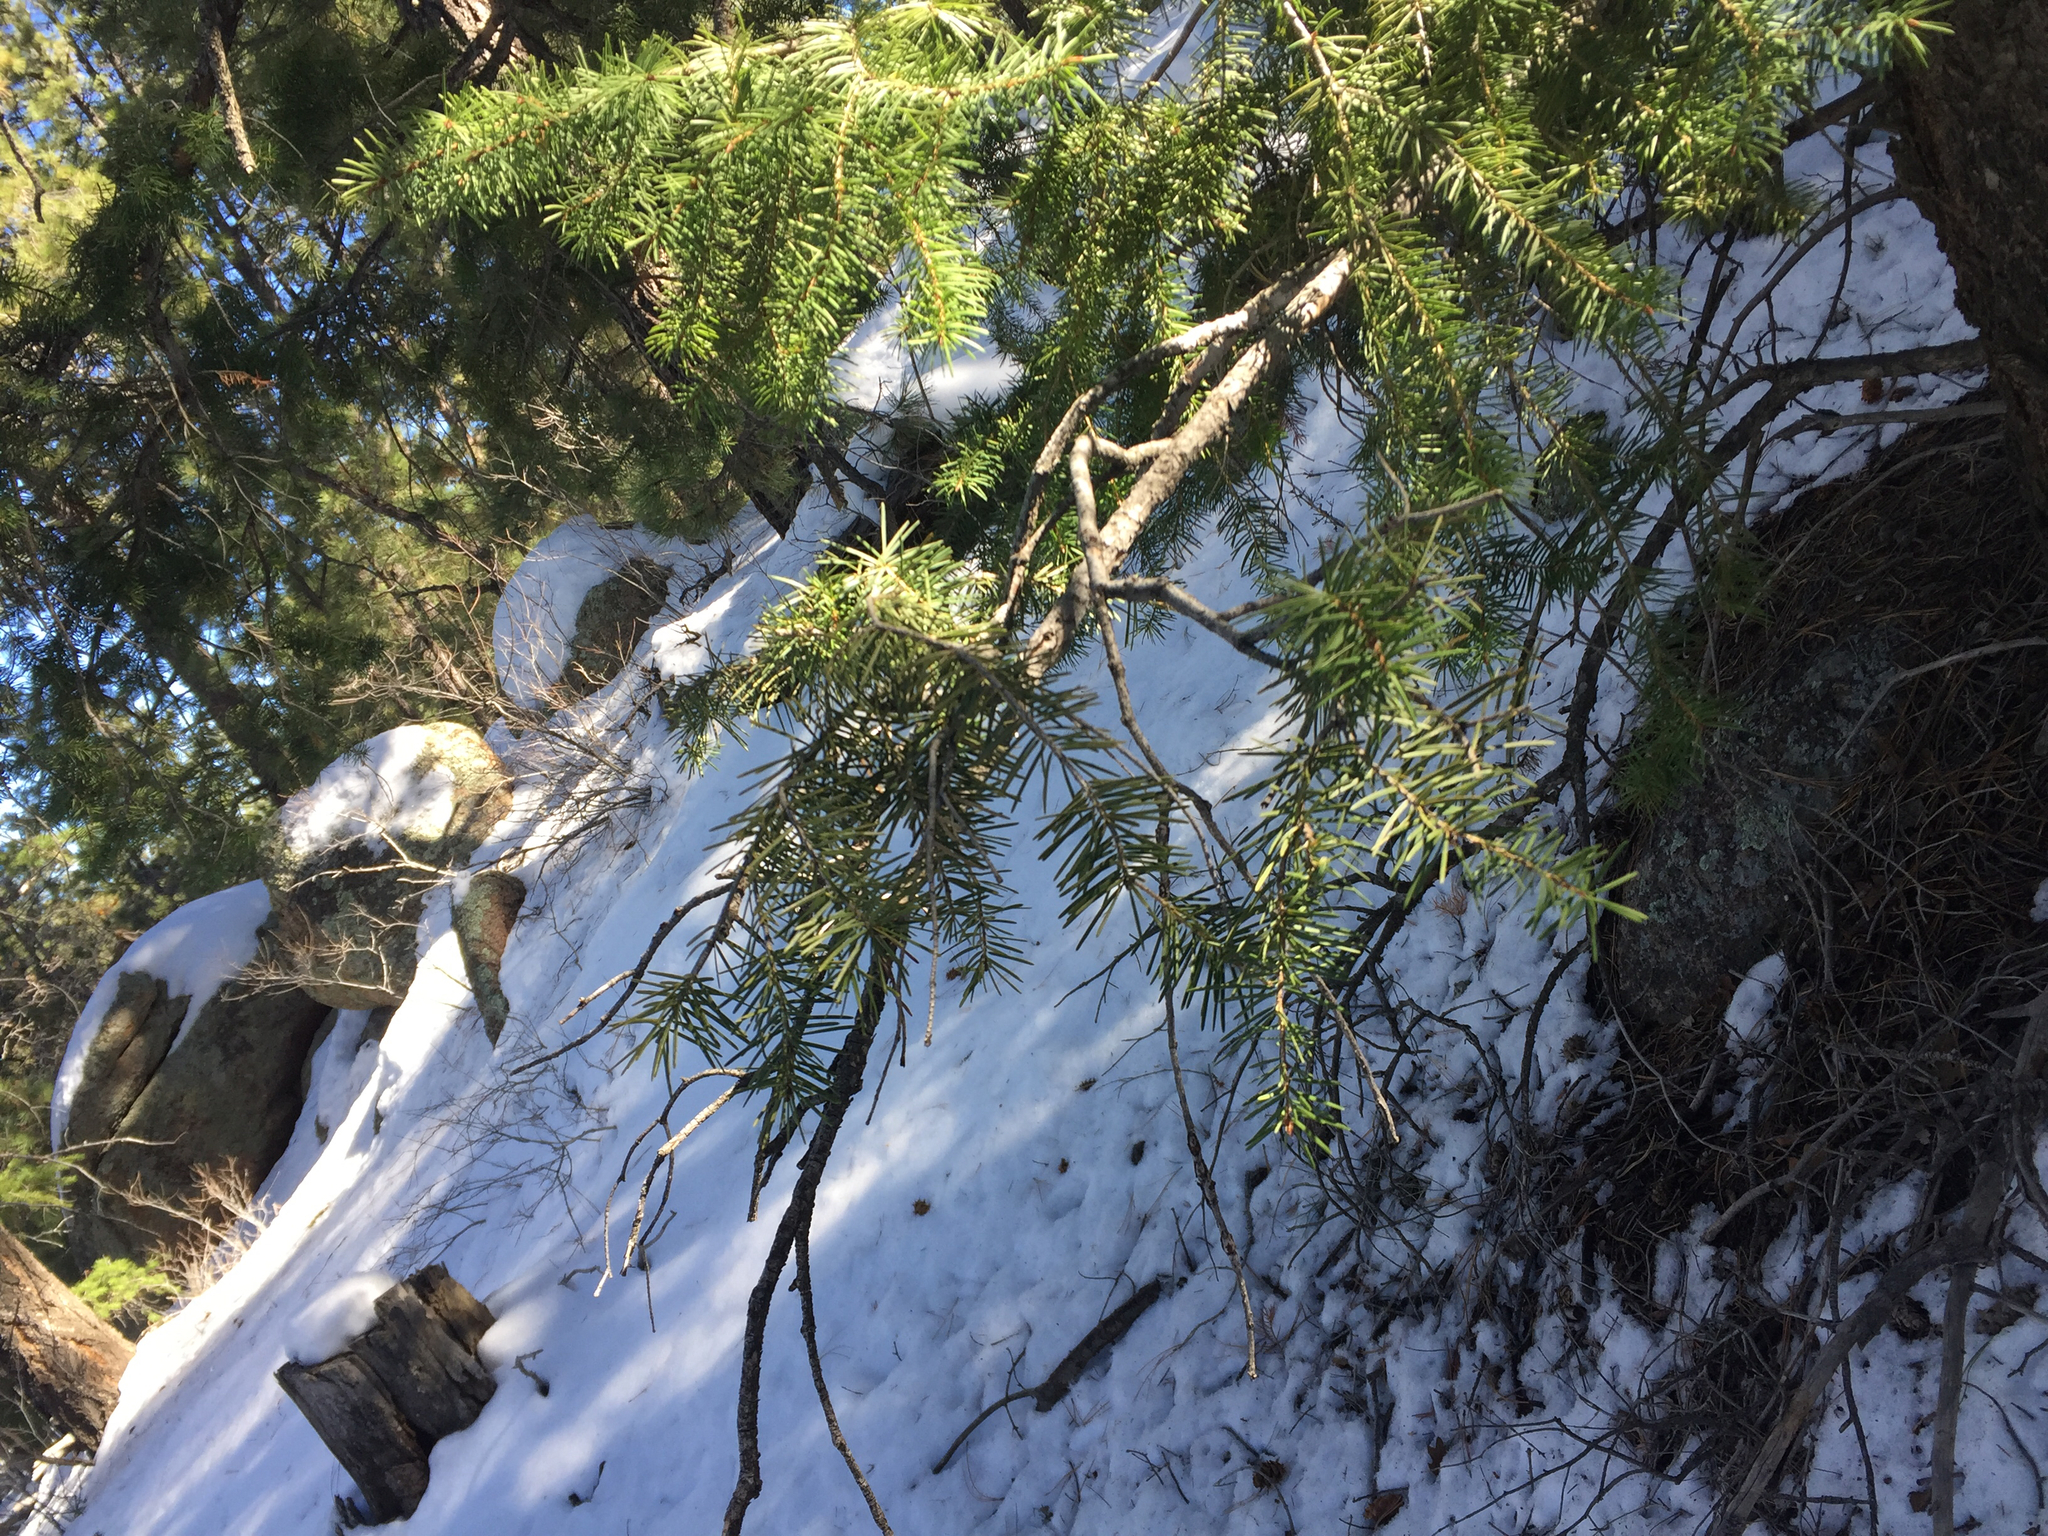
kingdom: Plantae
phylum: Tracheophyta
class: Pinopsida
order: Pinales
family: Pinaceae
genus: Pinus
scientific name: Pinus ponderosa
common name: Western yellow-pine
